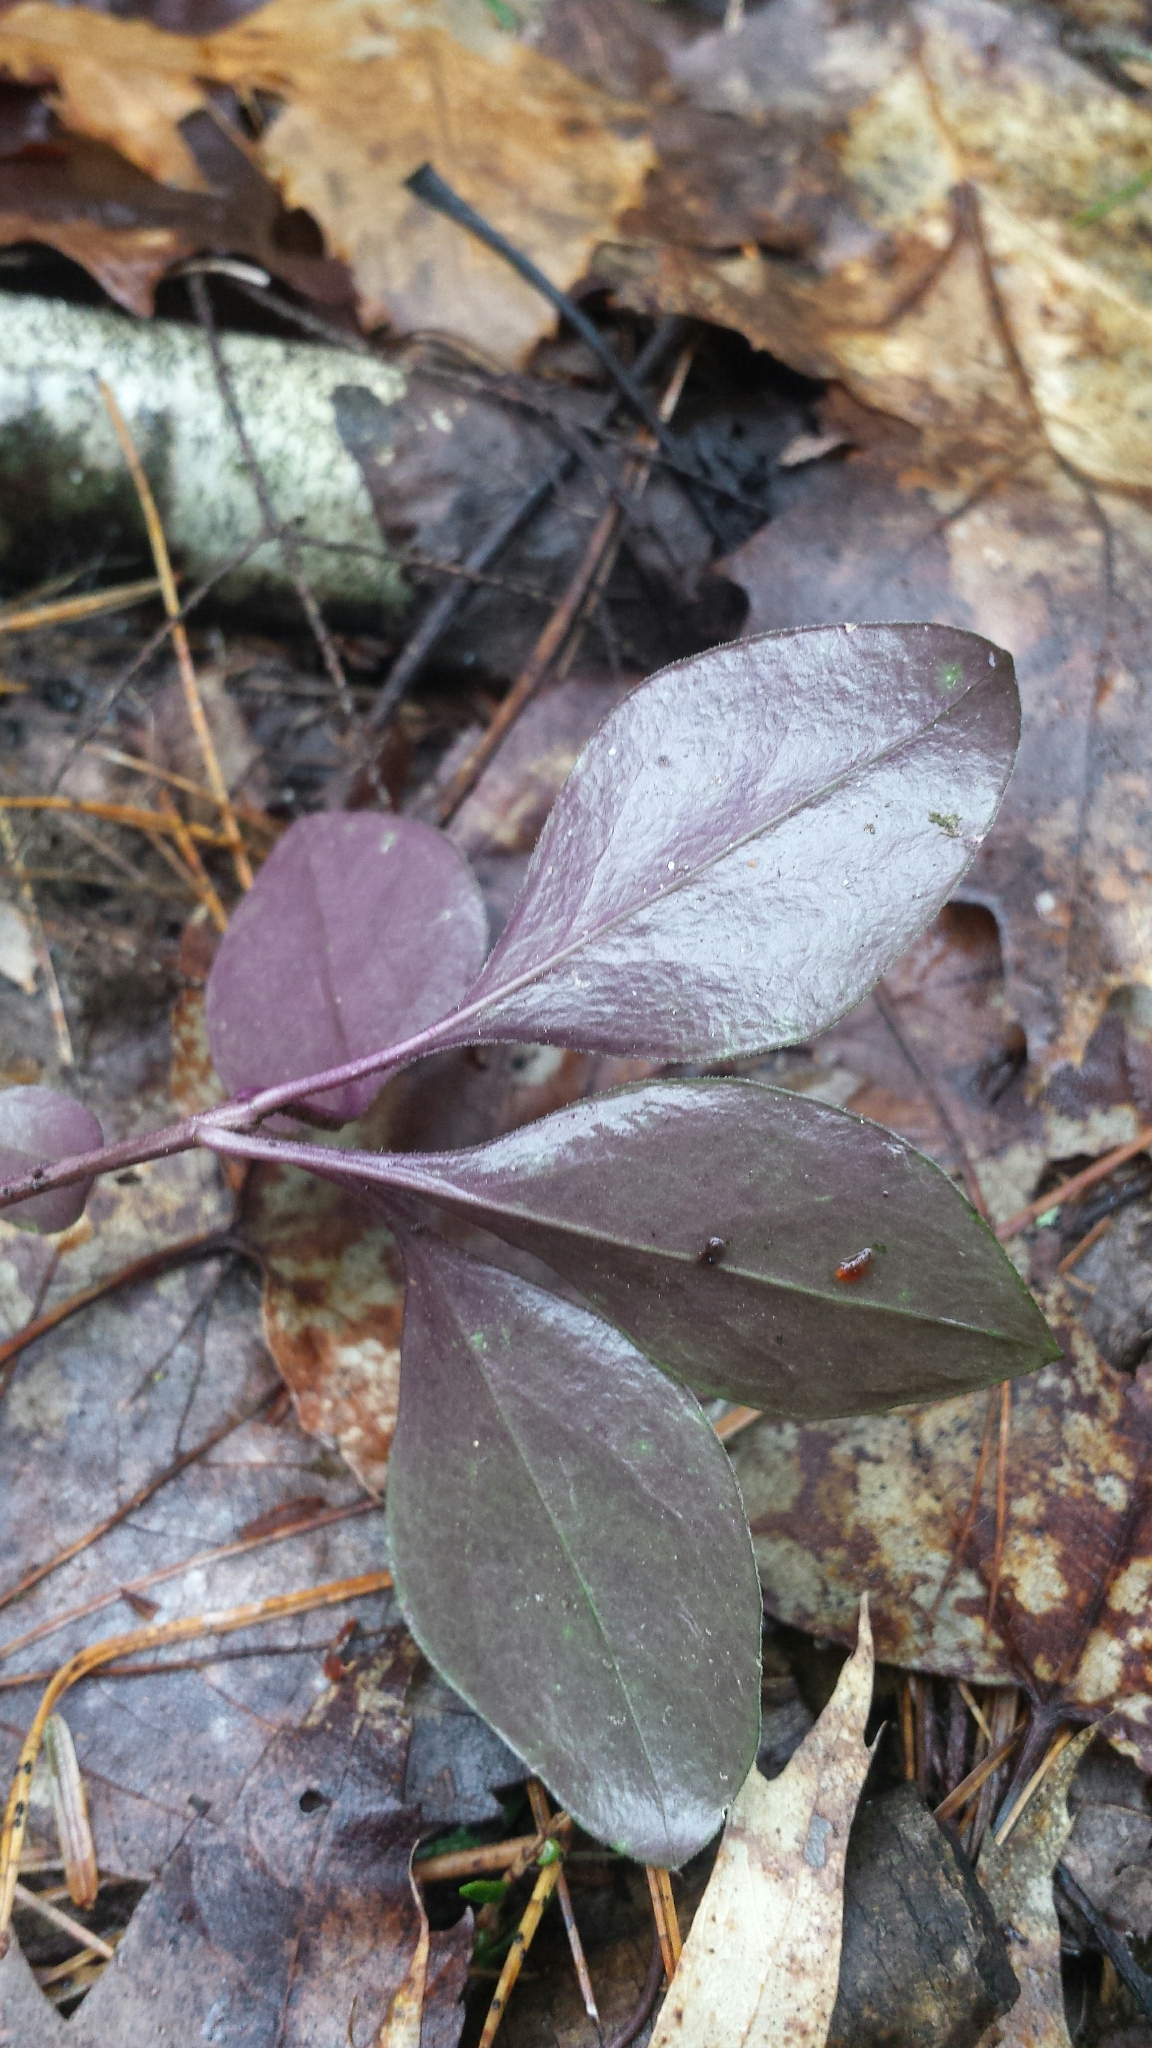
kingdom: Plantae
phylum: Tracheophyta
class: Magnoliopsida
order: Fabales
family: Polygalaceae
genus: Polygaloides
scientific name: Polygaloides paucifolia
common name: Bird-on-the-wing
